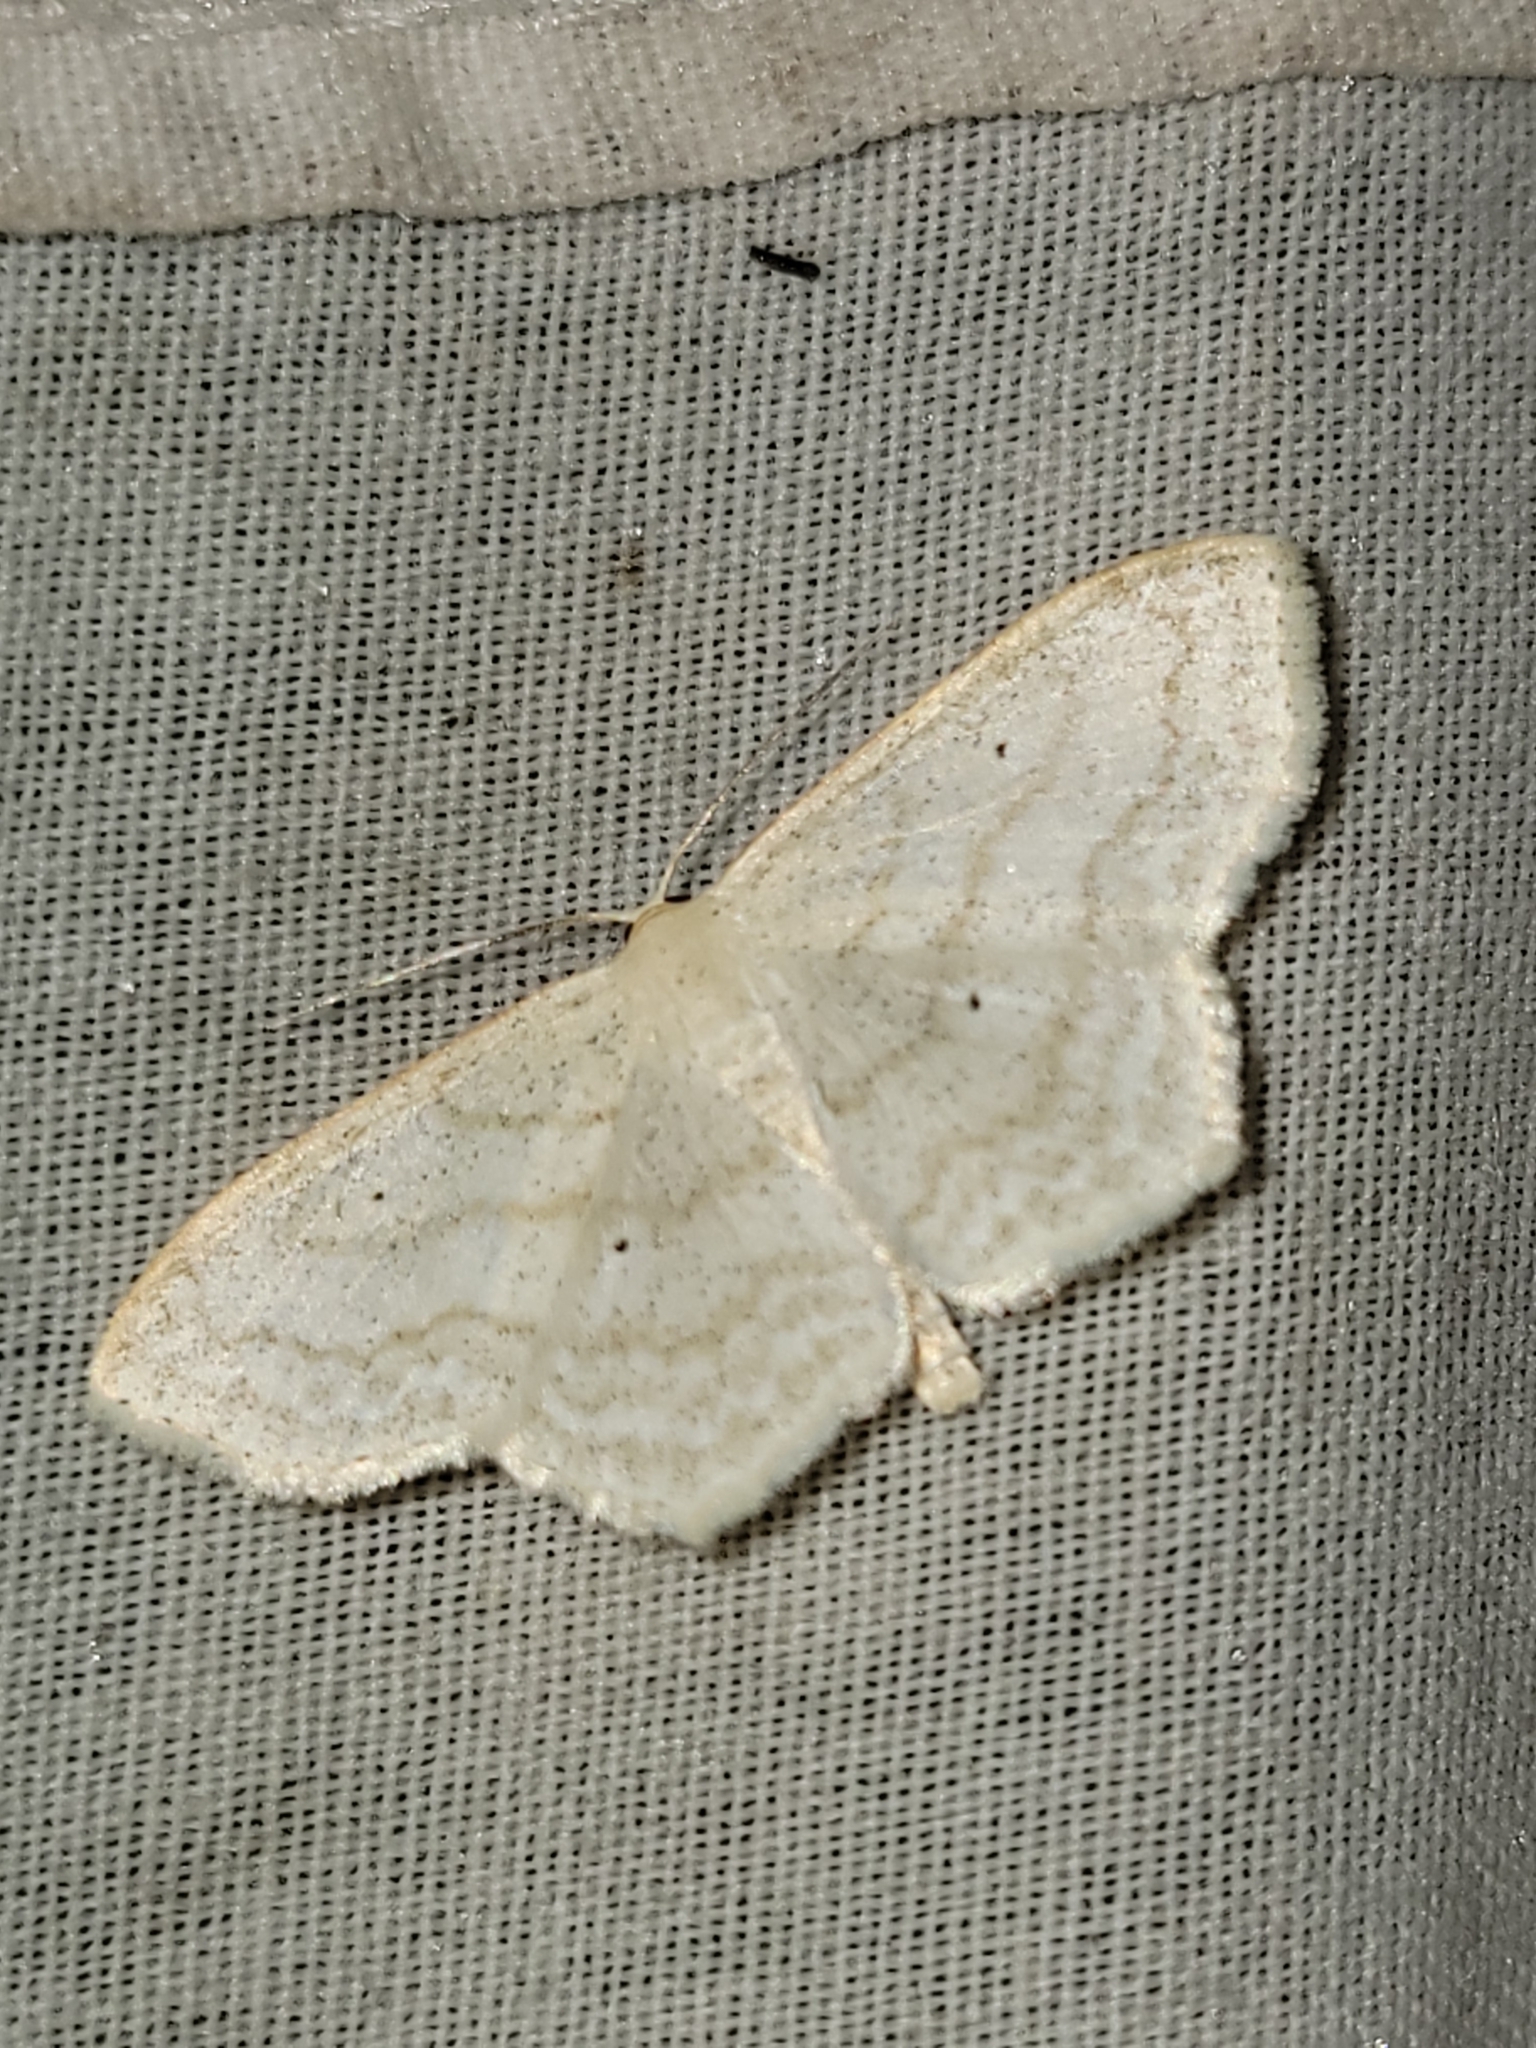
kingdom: Animalia
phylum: Arthropoda
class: Insecta
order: Lepidoptera
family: Geometridae
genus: Scopula
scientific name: Scopula limboundata
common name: Large lace border
